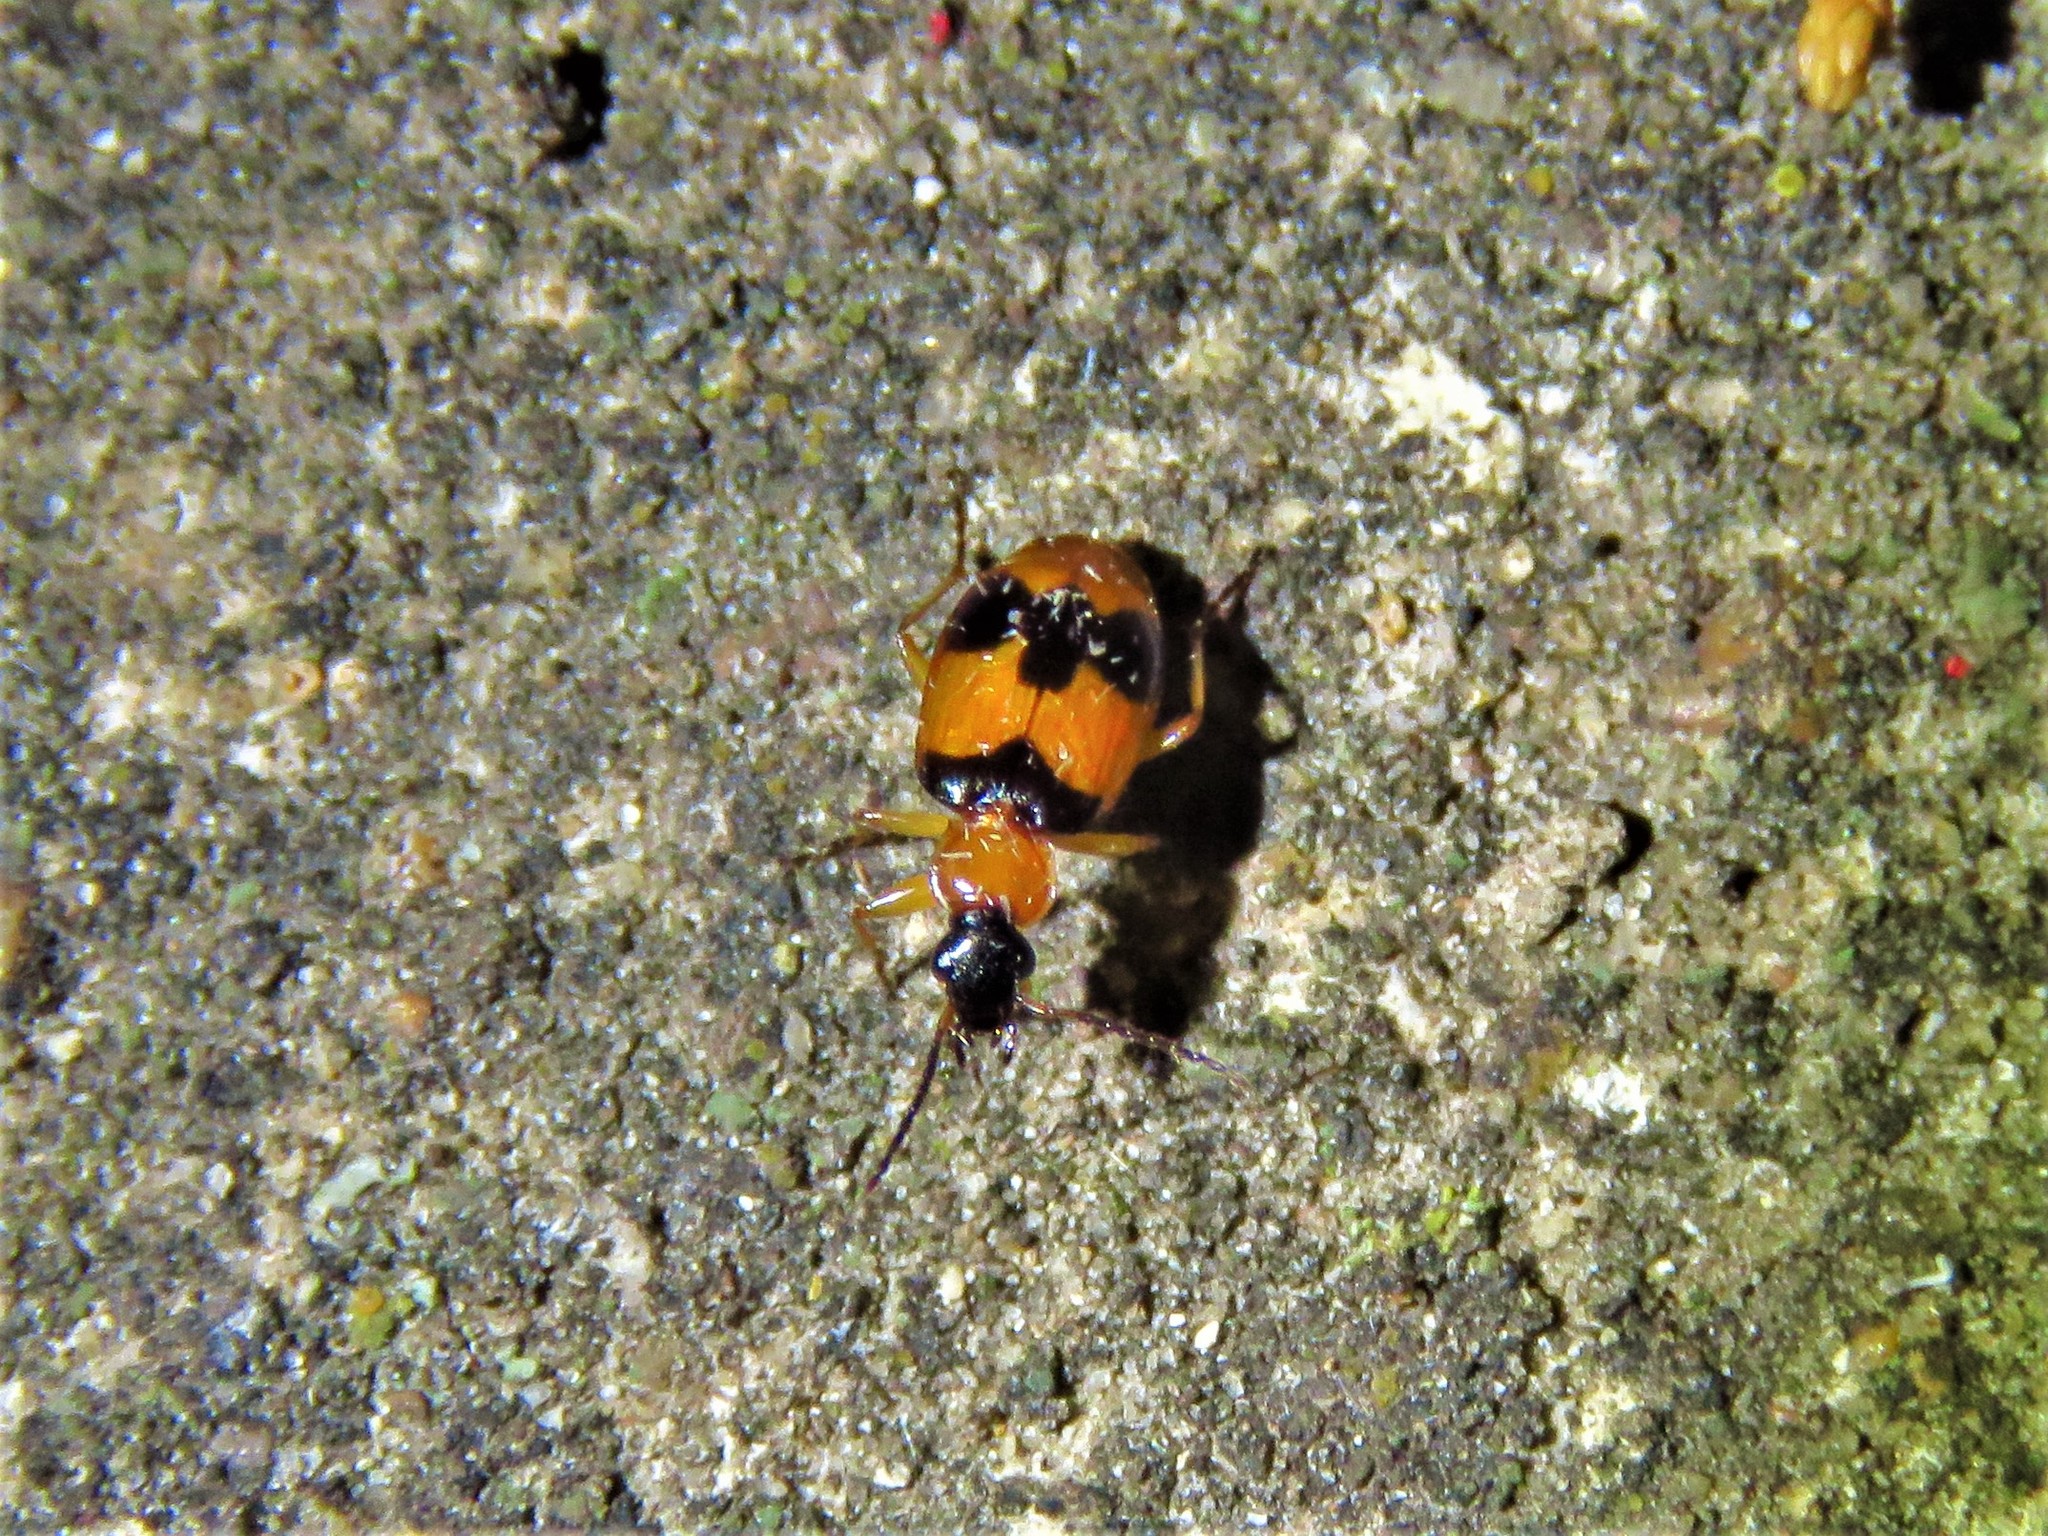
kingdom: Animalia
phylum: Arthropoda
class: Insecta
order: Coleoptera
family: Carabidae
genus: Lebia
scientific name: Lebia pulchella
